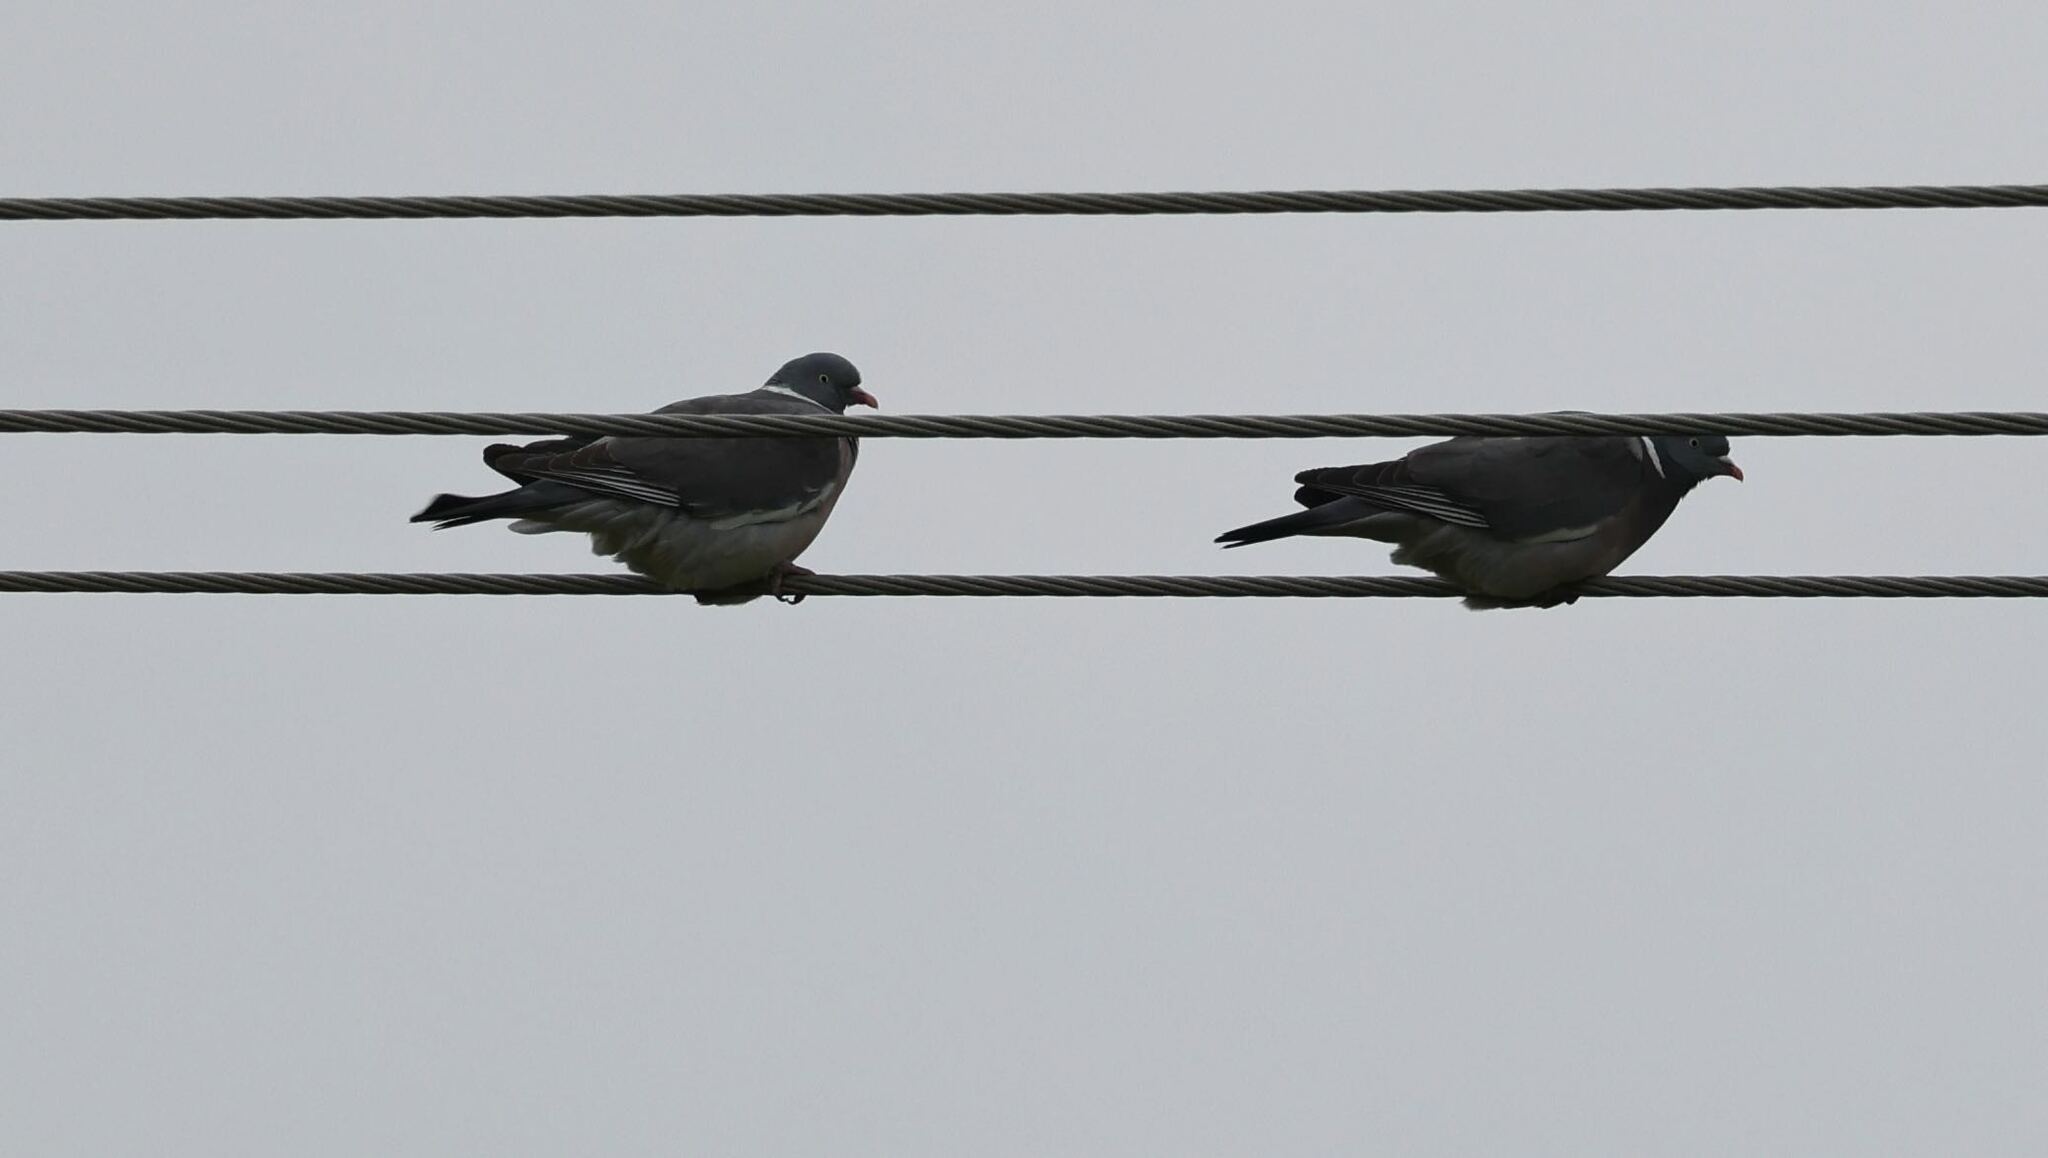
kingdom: Animalia
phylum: Chordata
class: Aves
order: Columbiformes
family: Columbidae
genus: Columba
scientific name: Columba palumbus
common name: Common wood pigeon
